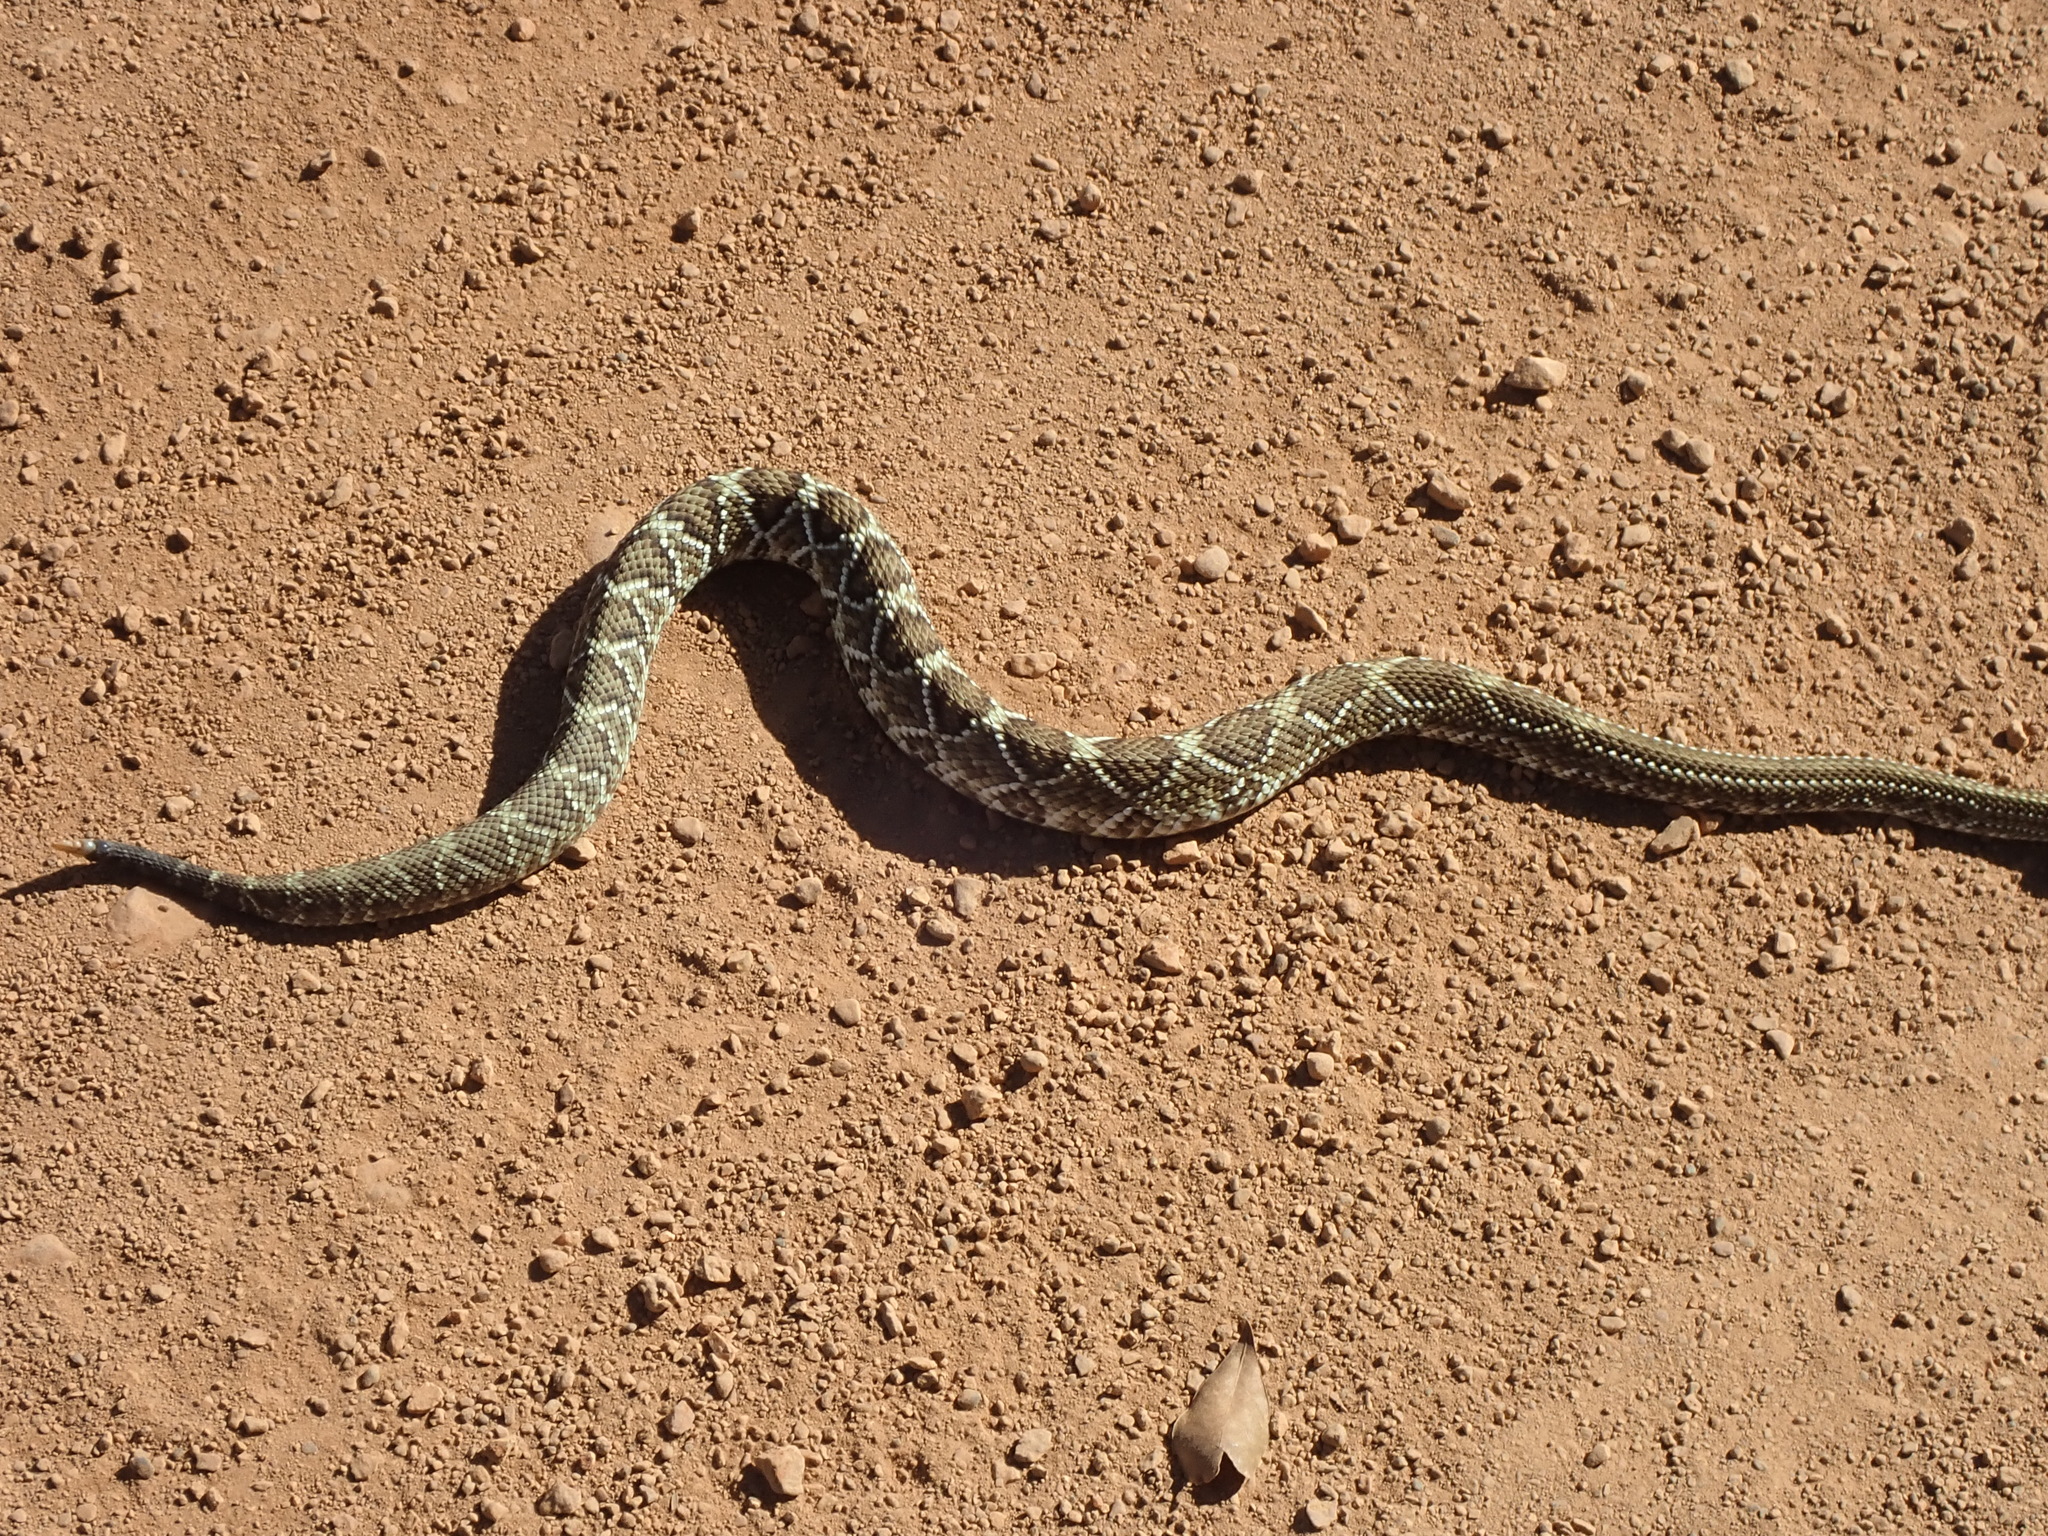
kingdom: Animalia
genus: Crotalus
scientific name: Crotalus durissus
